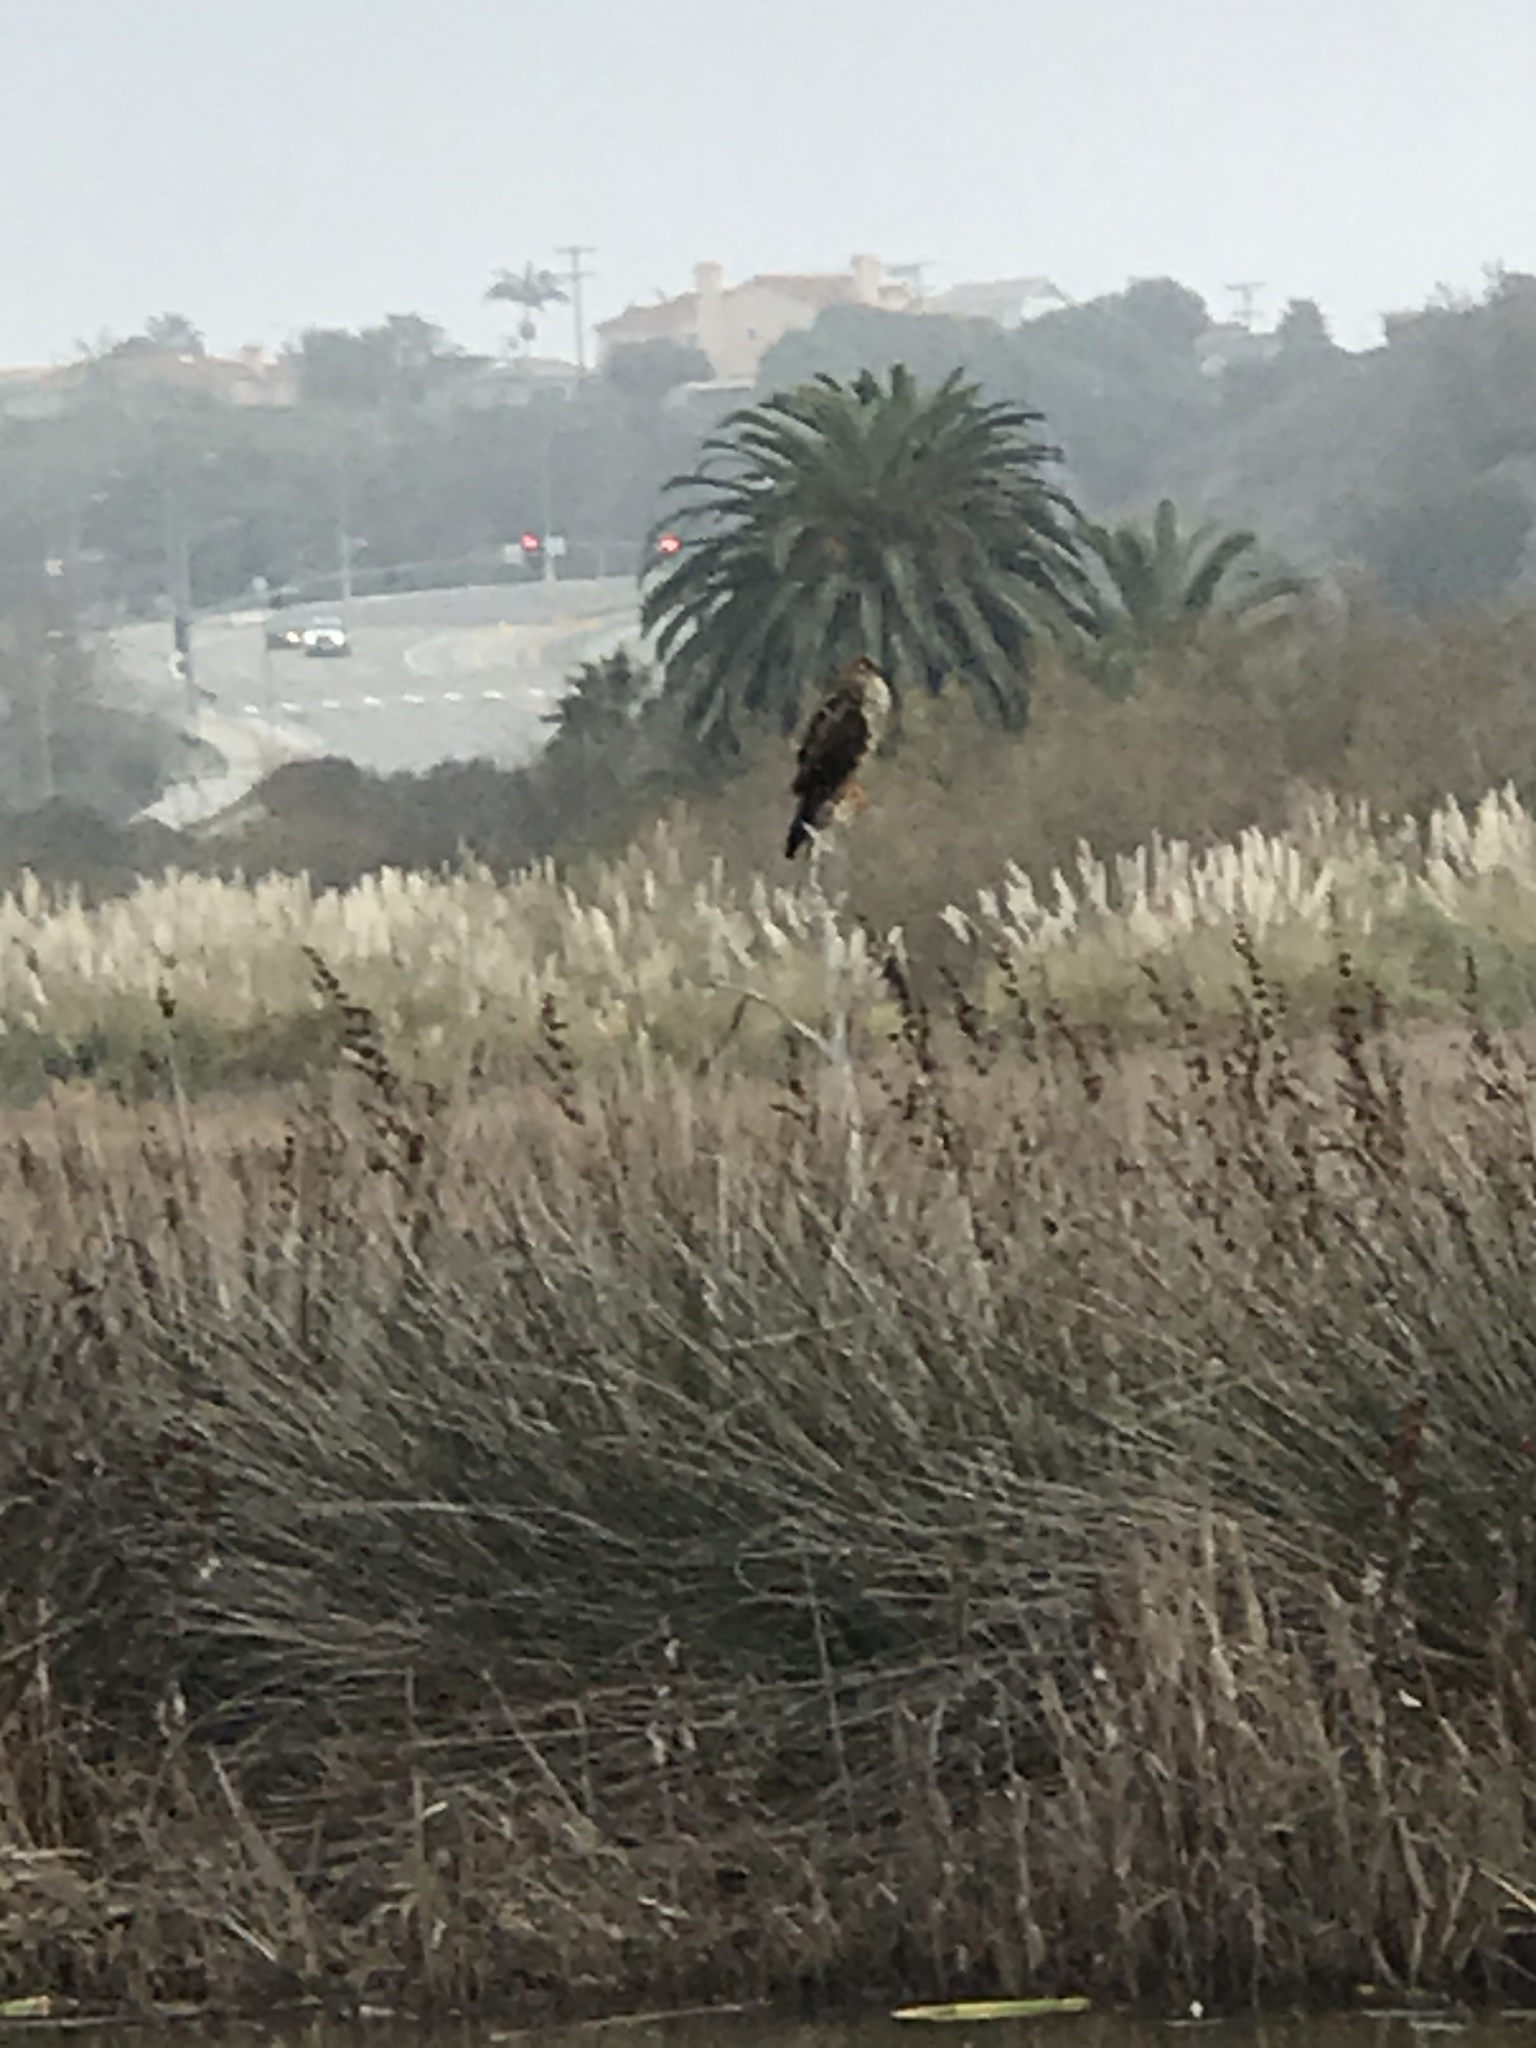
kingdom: Animalia
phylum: Chordata
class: Aves
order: Accipitriformes
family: Accipitridae
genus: Circus
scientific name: Circus cyaneus
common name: Hen harrier
